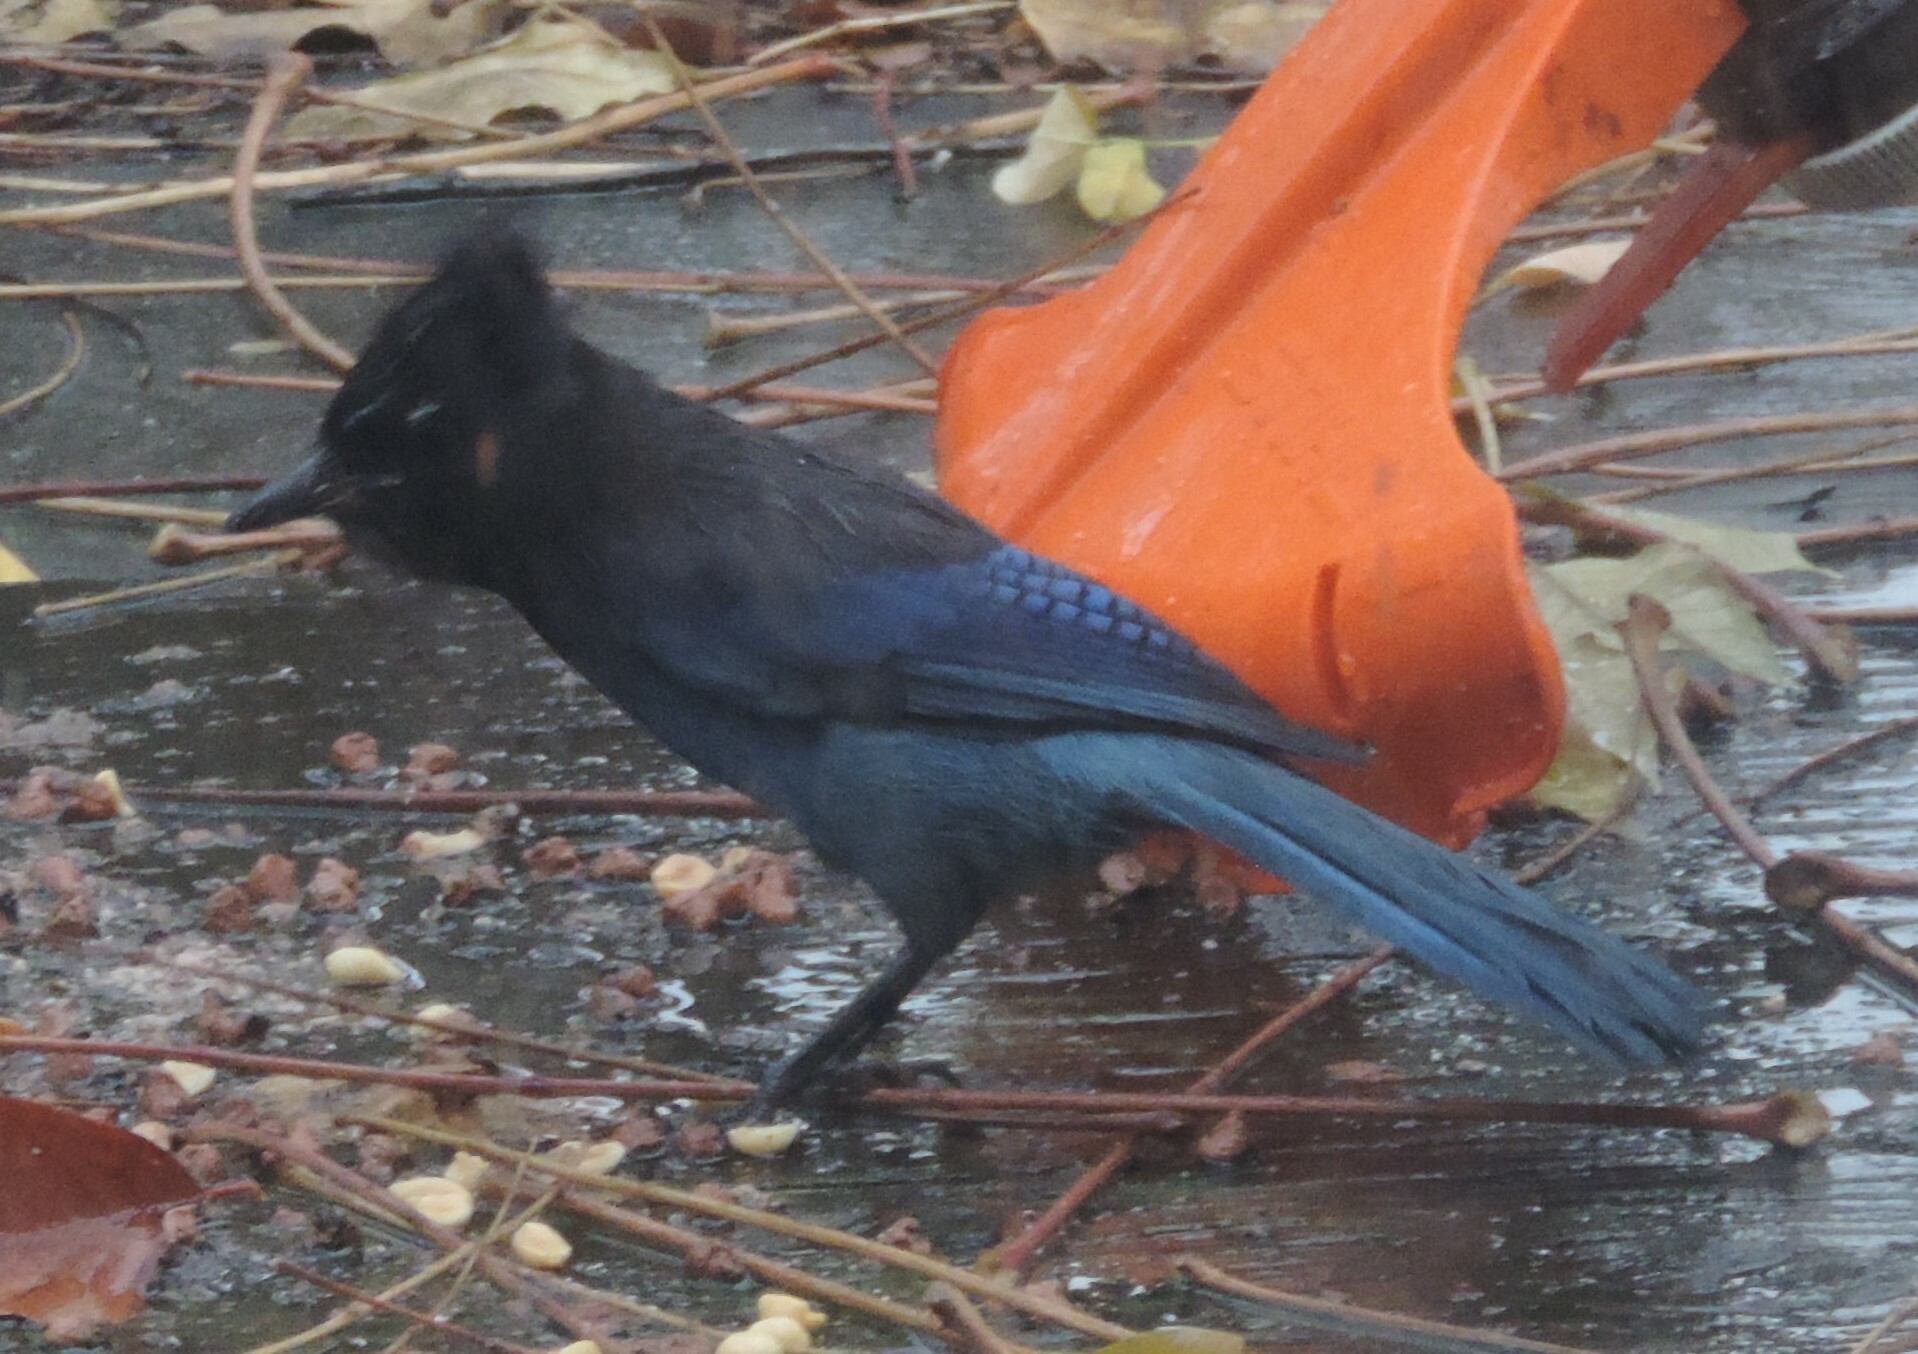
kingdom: Animalia
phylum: Chordata
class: Aves
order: Passeriformes
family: Corvidae
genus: Cyanocitta
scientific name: Cyanocitta stelleri
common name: Steller's jay
